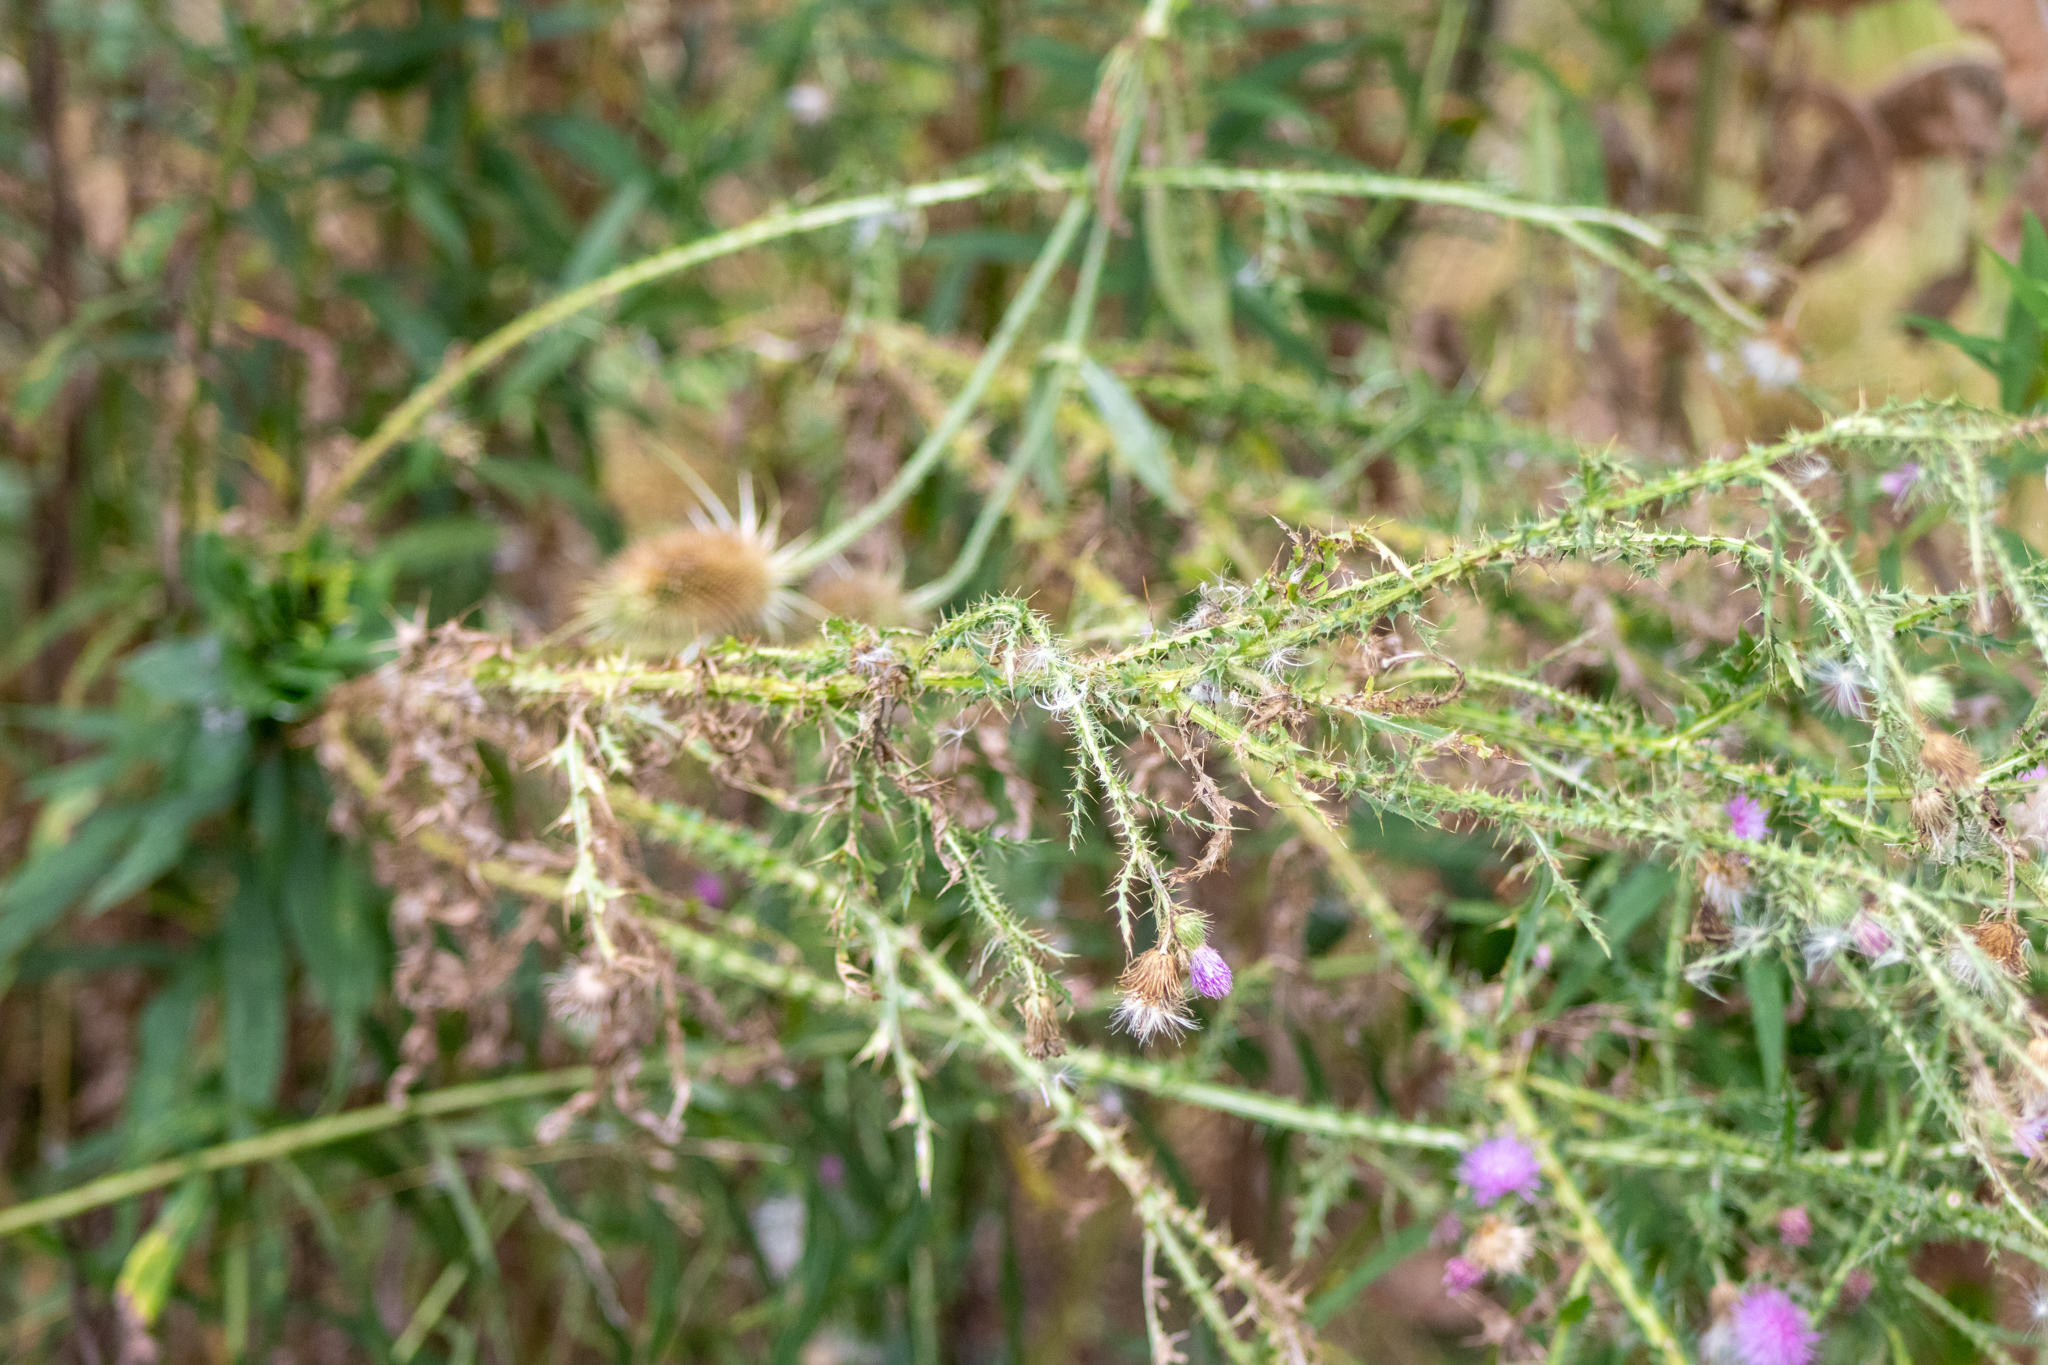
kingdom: Plantae
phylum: Tracheophyta
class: Magnoliopsida
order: Asterales
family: Asteraceae
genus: Carduus
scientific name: Carduus acanthoides
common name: Plumeless thistle
